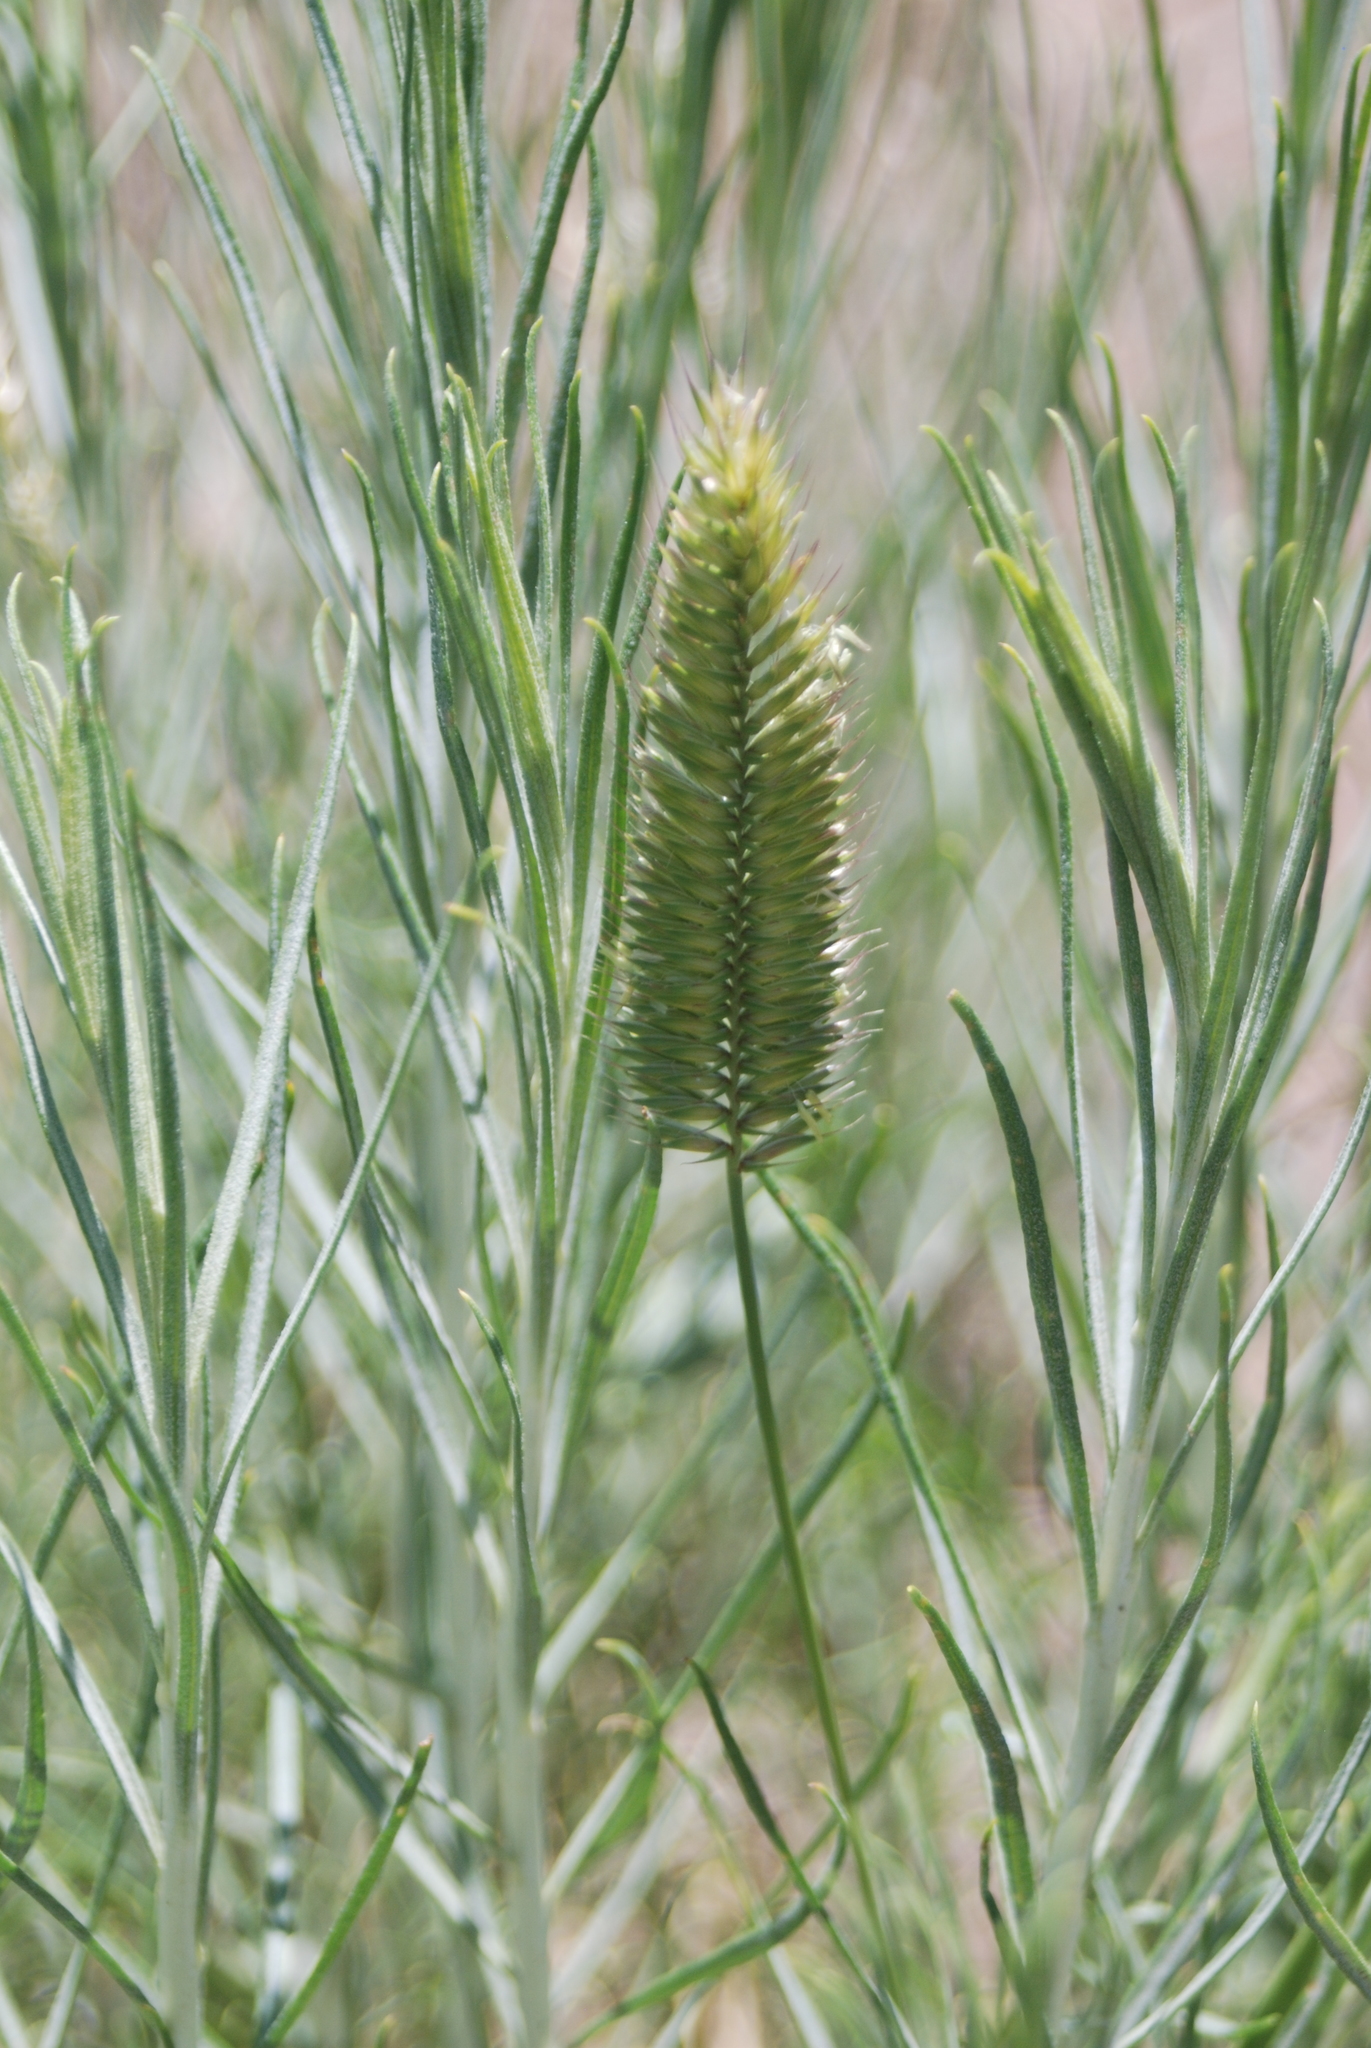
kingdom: Plantae
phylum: Tracheophyta
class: Liliopsida
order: Poales
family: Poaceae
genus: Agropyron
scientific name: Agropyron cristatum
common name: Crested wheatgrass
